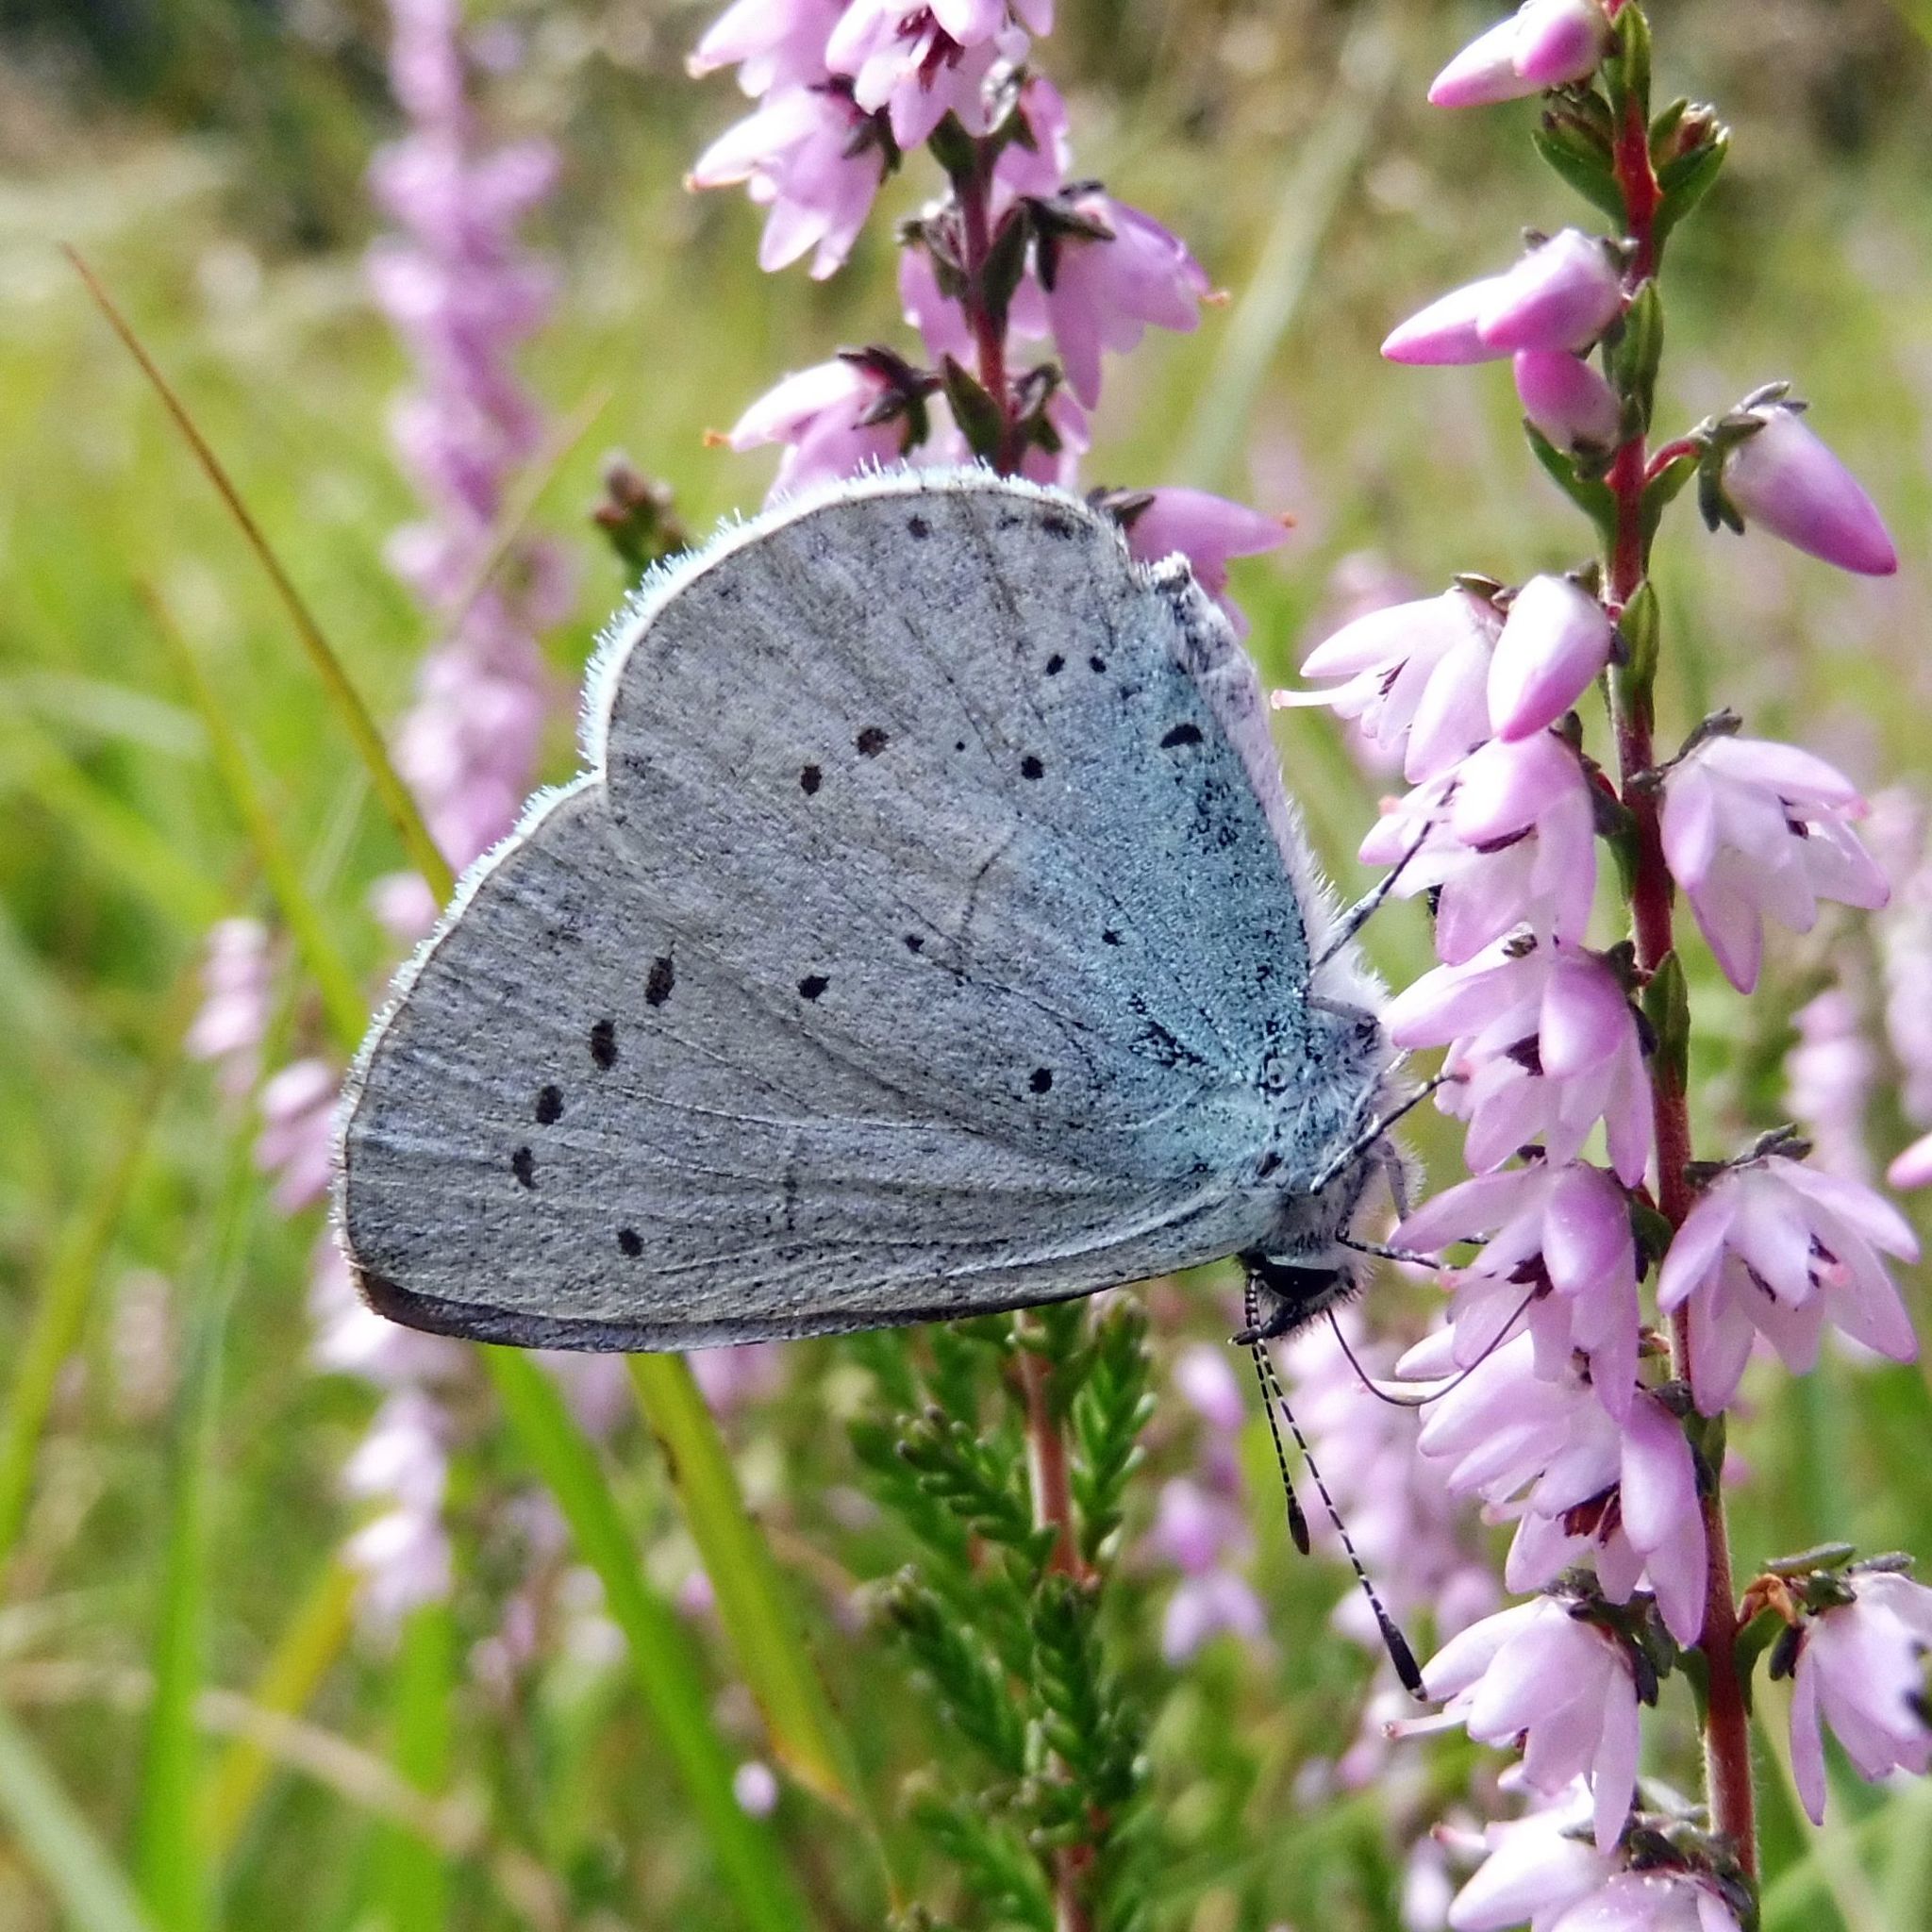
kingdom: Animalia
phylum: Arthropoda
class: Insecta
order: Lepidoptera
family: Lycaenidae
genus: Celastrina
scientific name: Celastrina argiolus
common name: Holly blue
